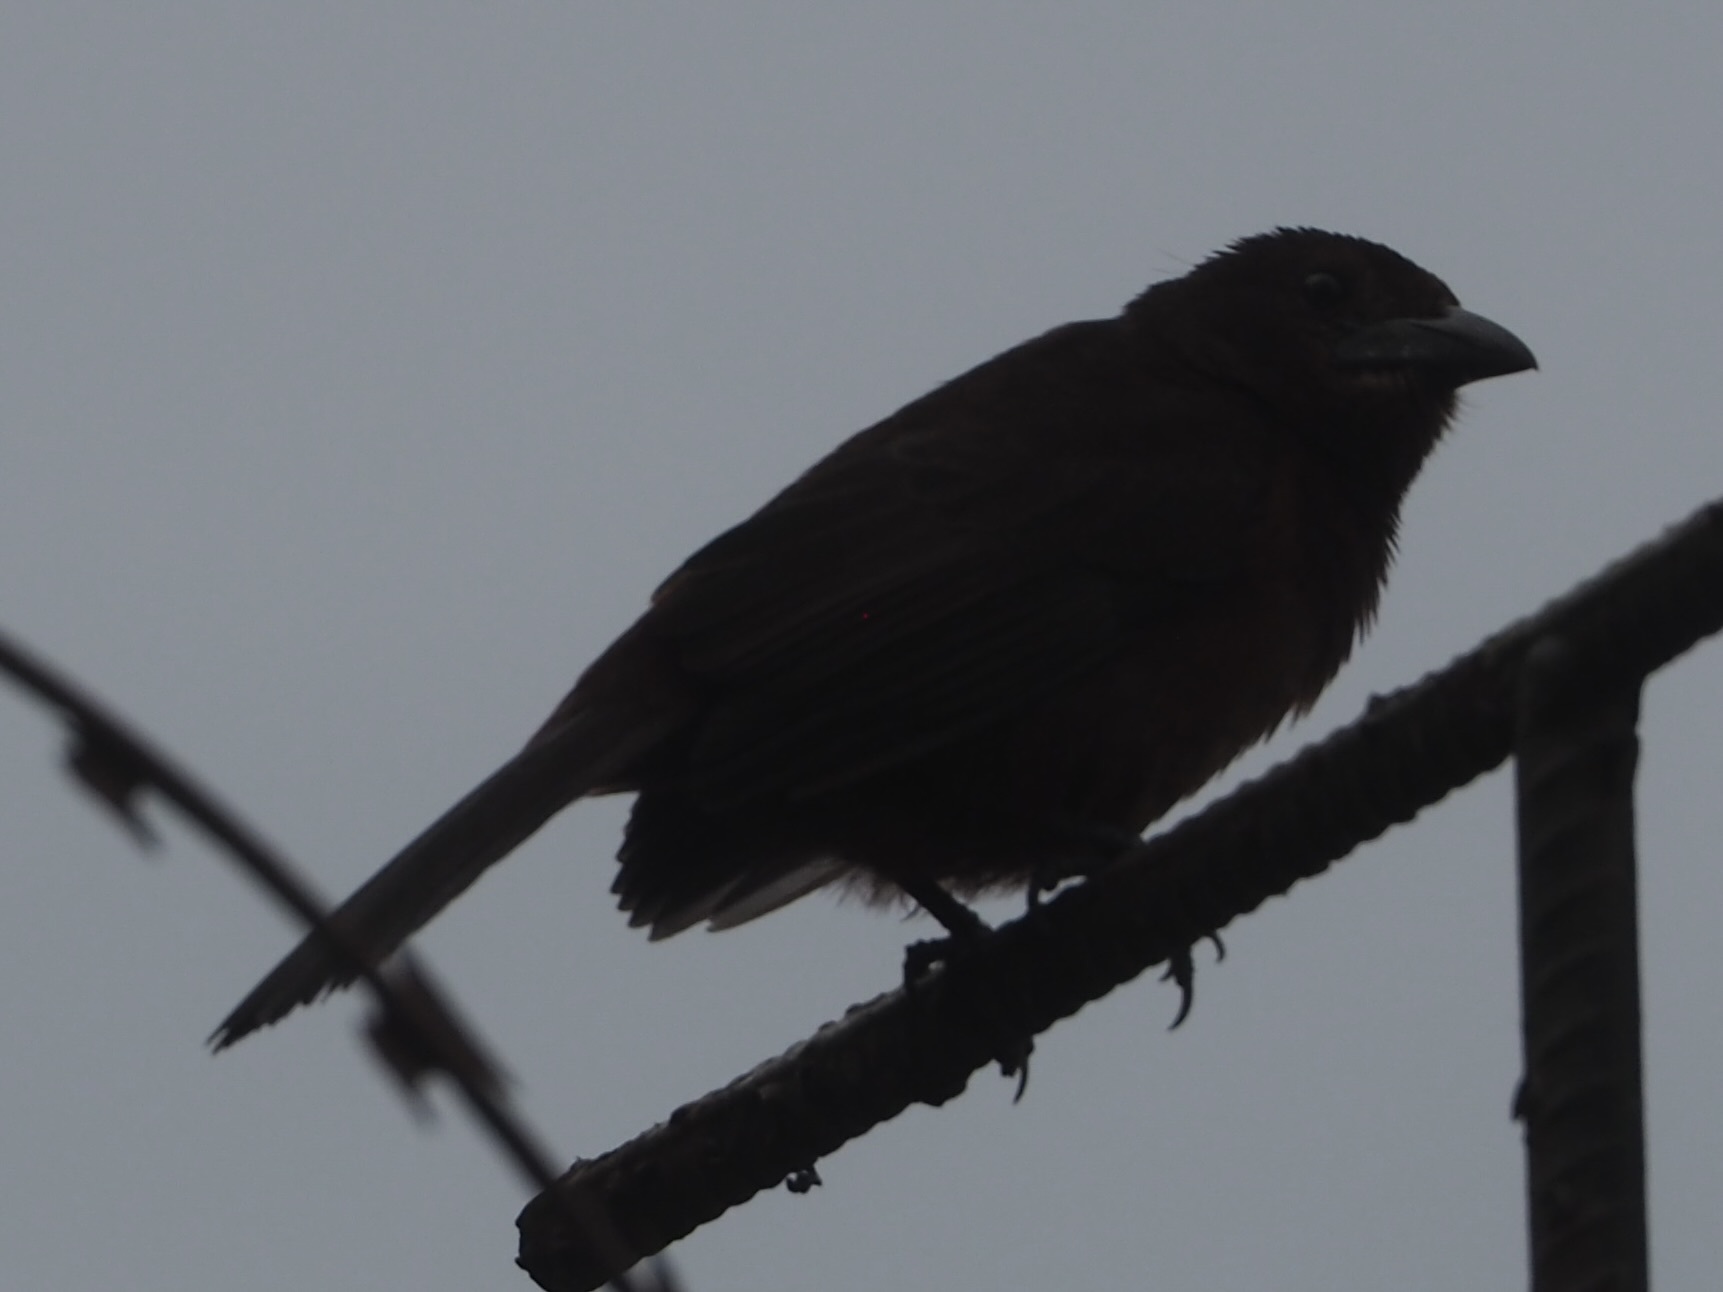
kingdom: Animalia
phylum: Chordata
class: Aves
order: Passeriformes
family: Thraupidae
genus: Ramphocelus
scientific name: Ramphocelus carbo
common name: Silver-beaked tanager
